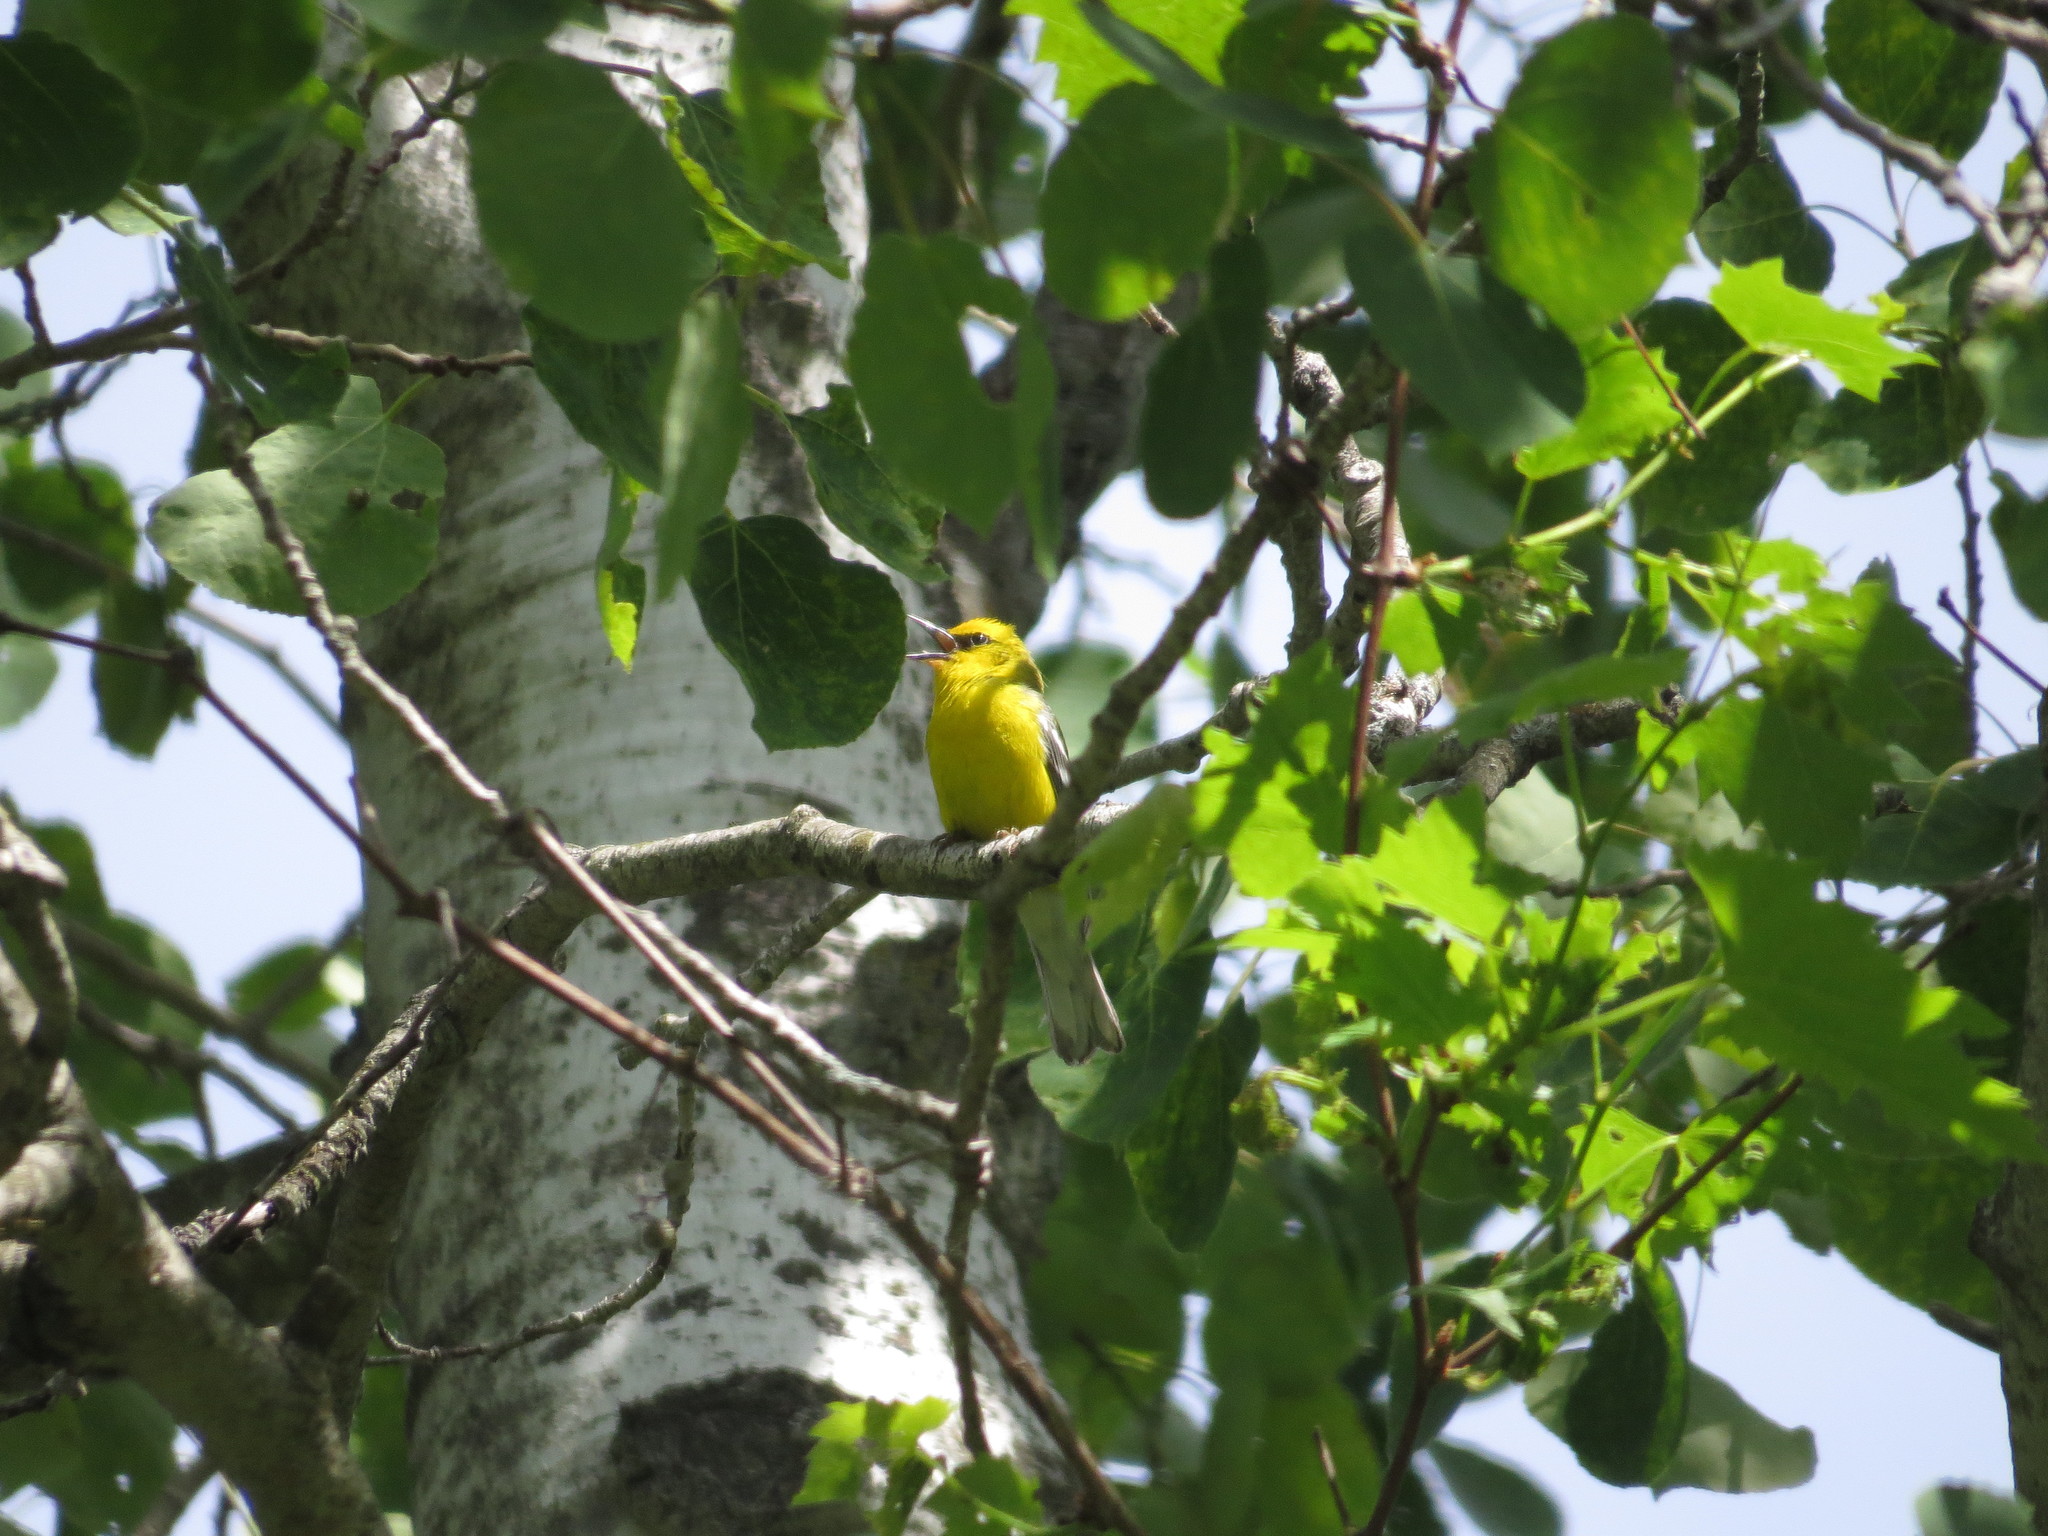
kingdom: Animalia
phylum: Chordata
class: Aves
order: Passeriformes
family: Parulidae
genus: Vermivora
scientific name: Vermivora cyanoptera
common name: Blue-winged warbler
